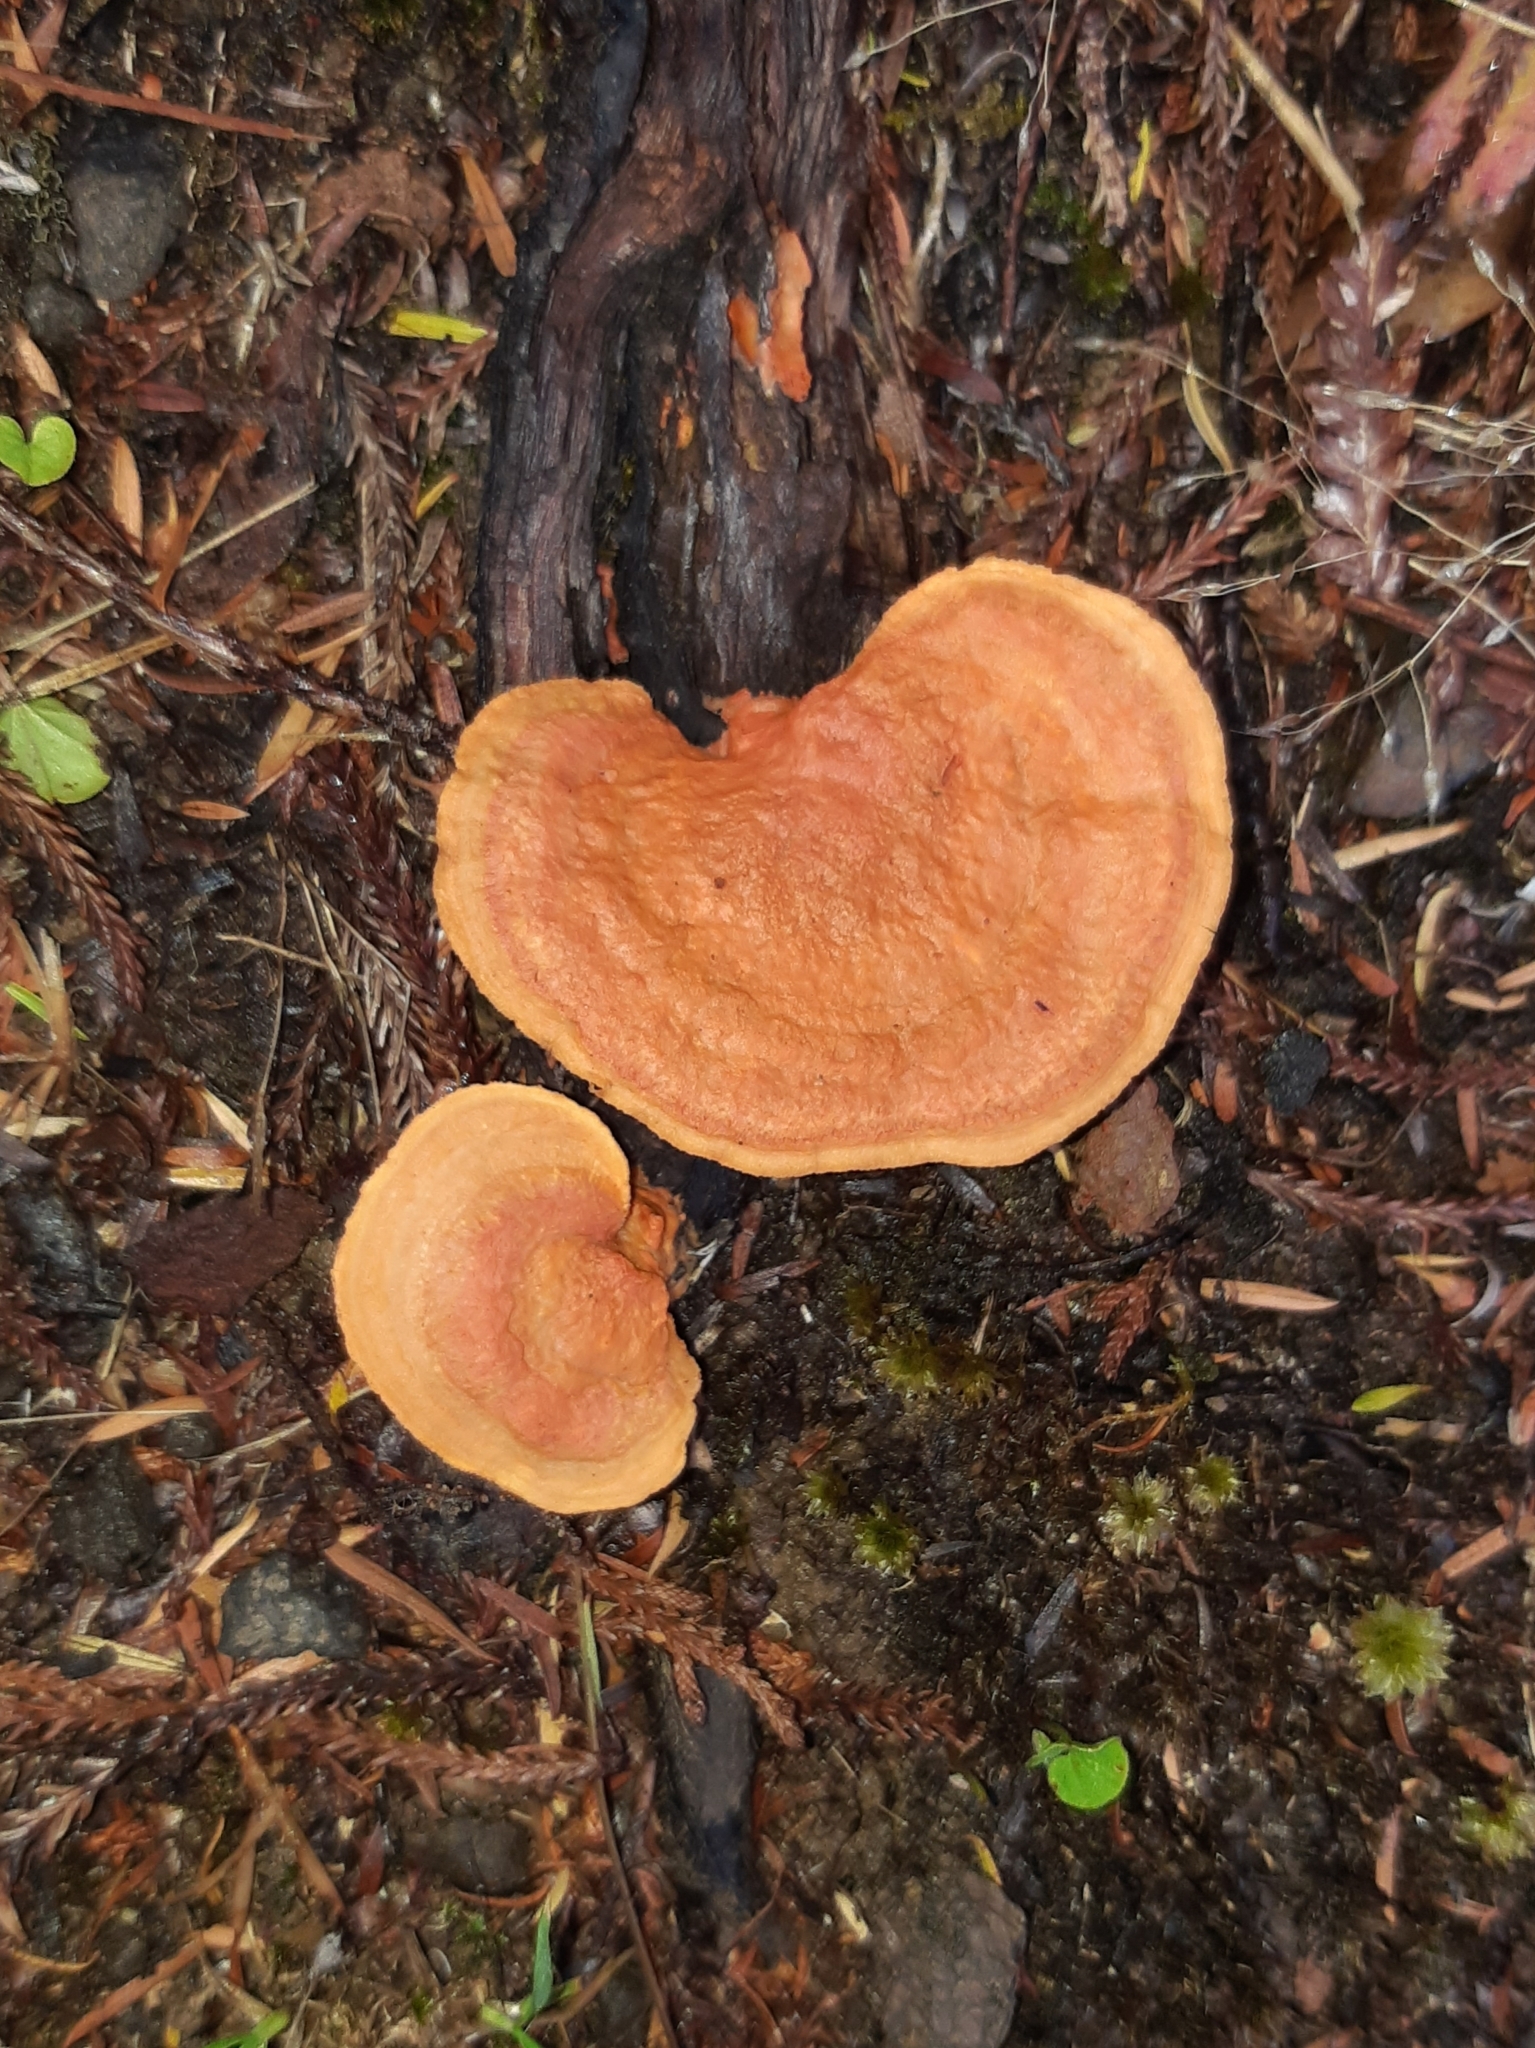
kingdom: Fungi
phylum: Basidiomycota
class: Agaricomycetes
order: Polyporales
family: Polyporaceae
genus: Trametes
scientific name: Trametes coccinea
